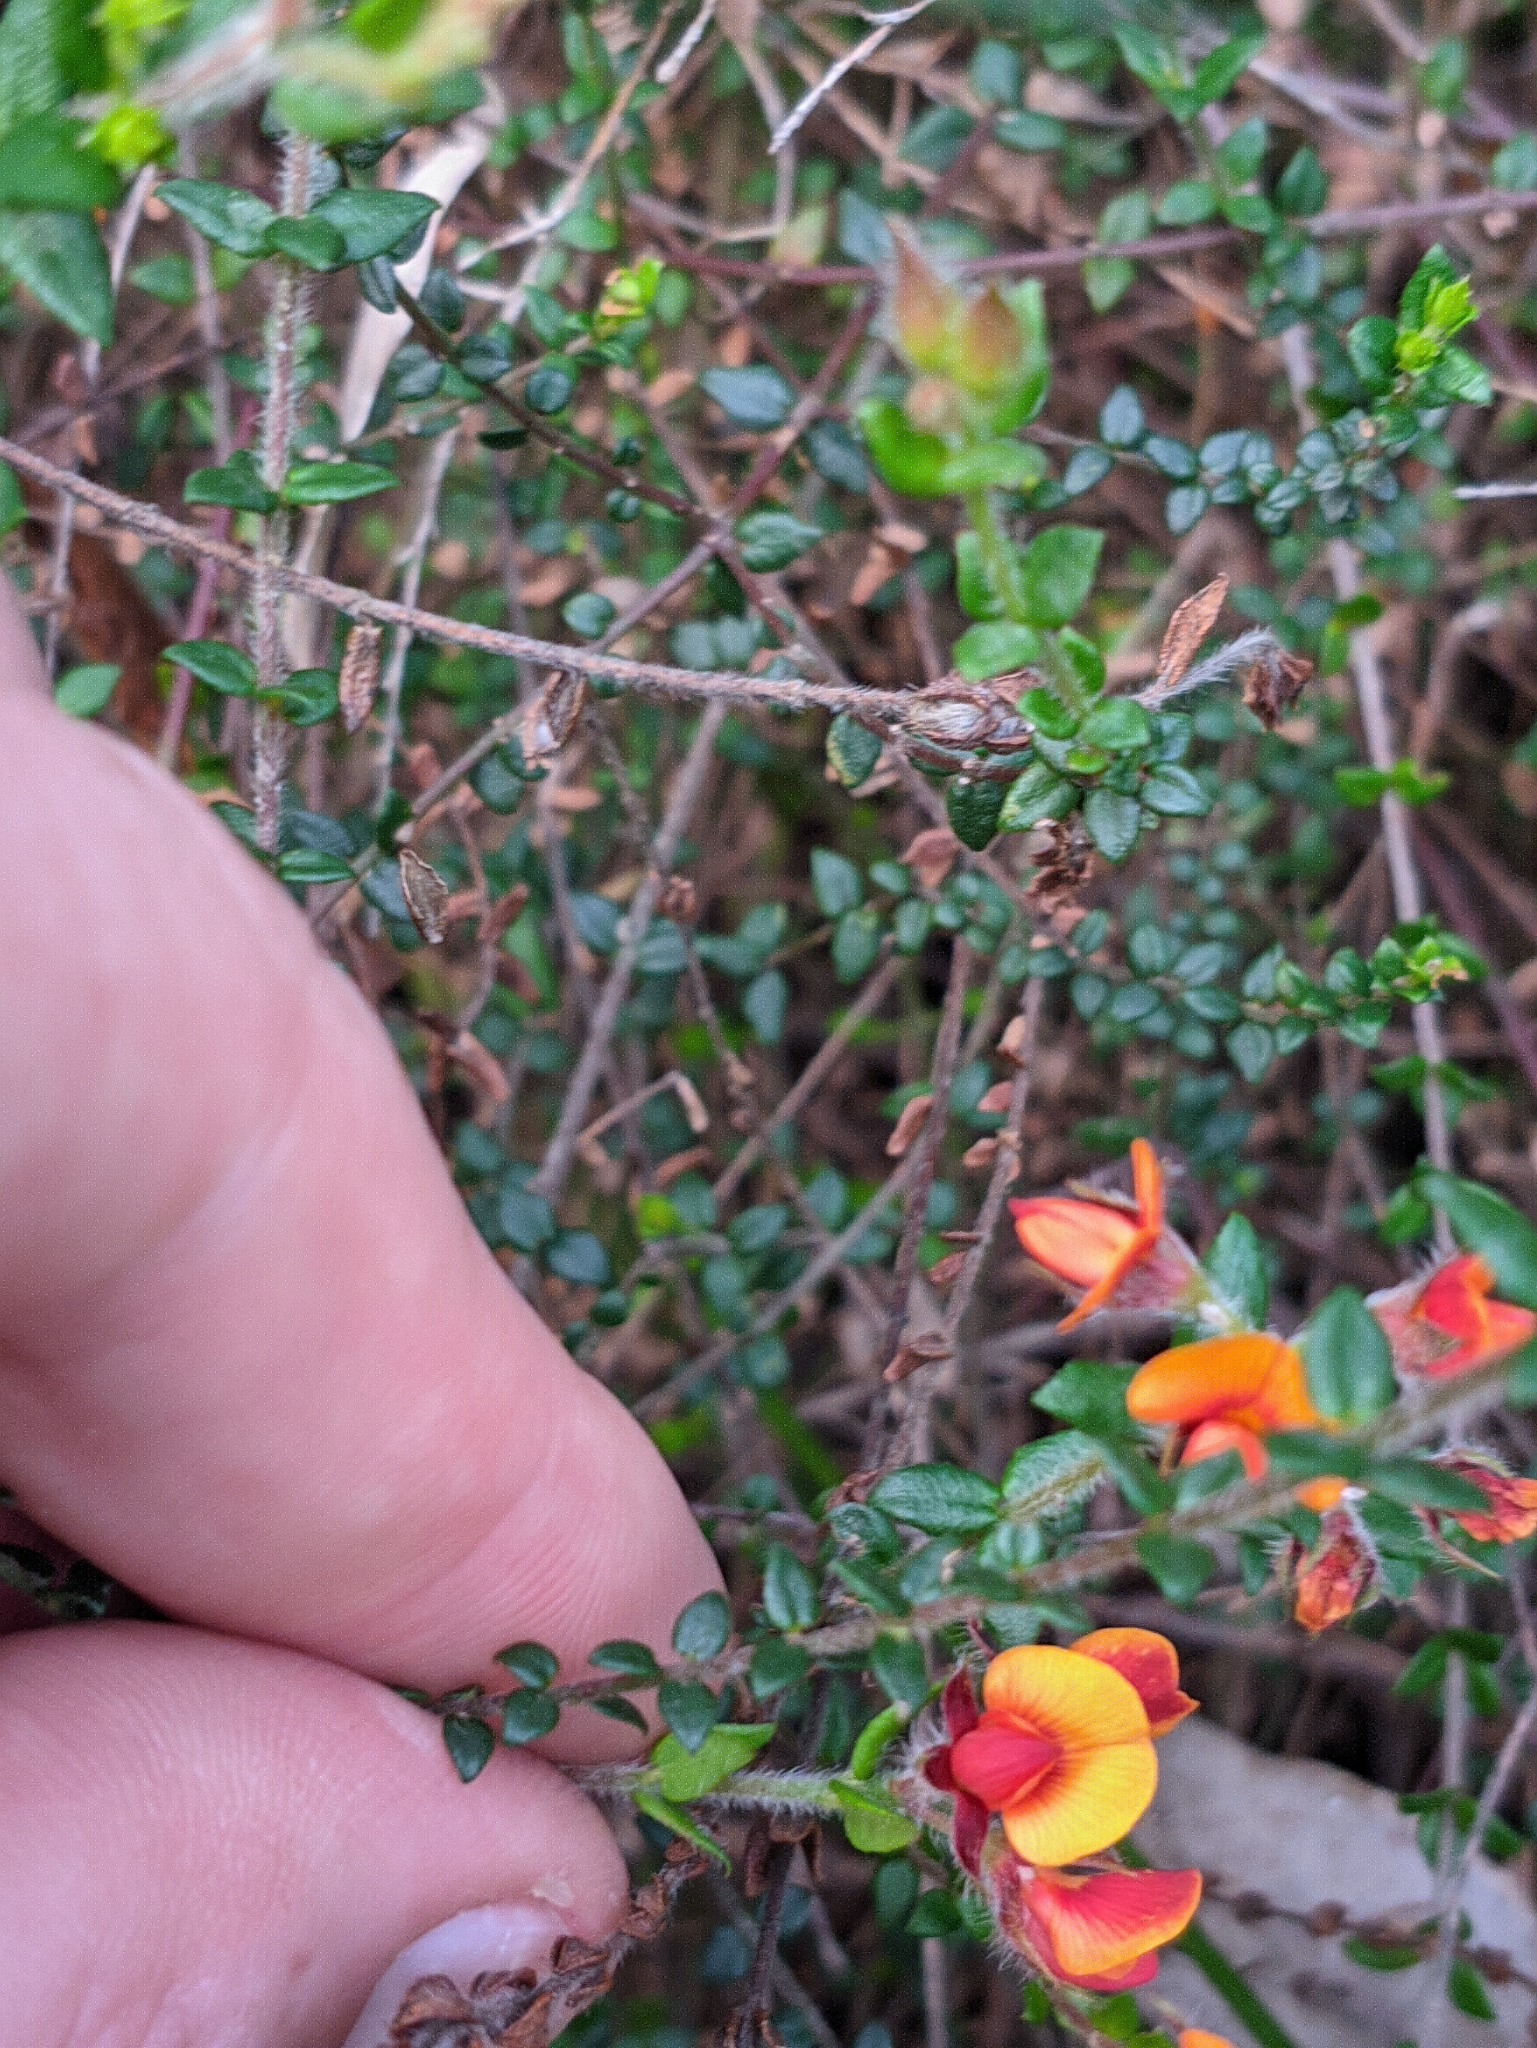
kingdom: Plantae
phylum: Tracheophyta
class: Magnoliopsida
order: Fabales
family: Fabaceae
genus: Oxylobium
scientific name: Oxylobium cordifolium
